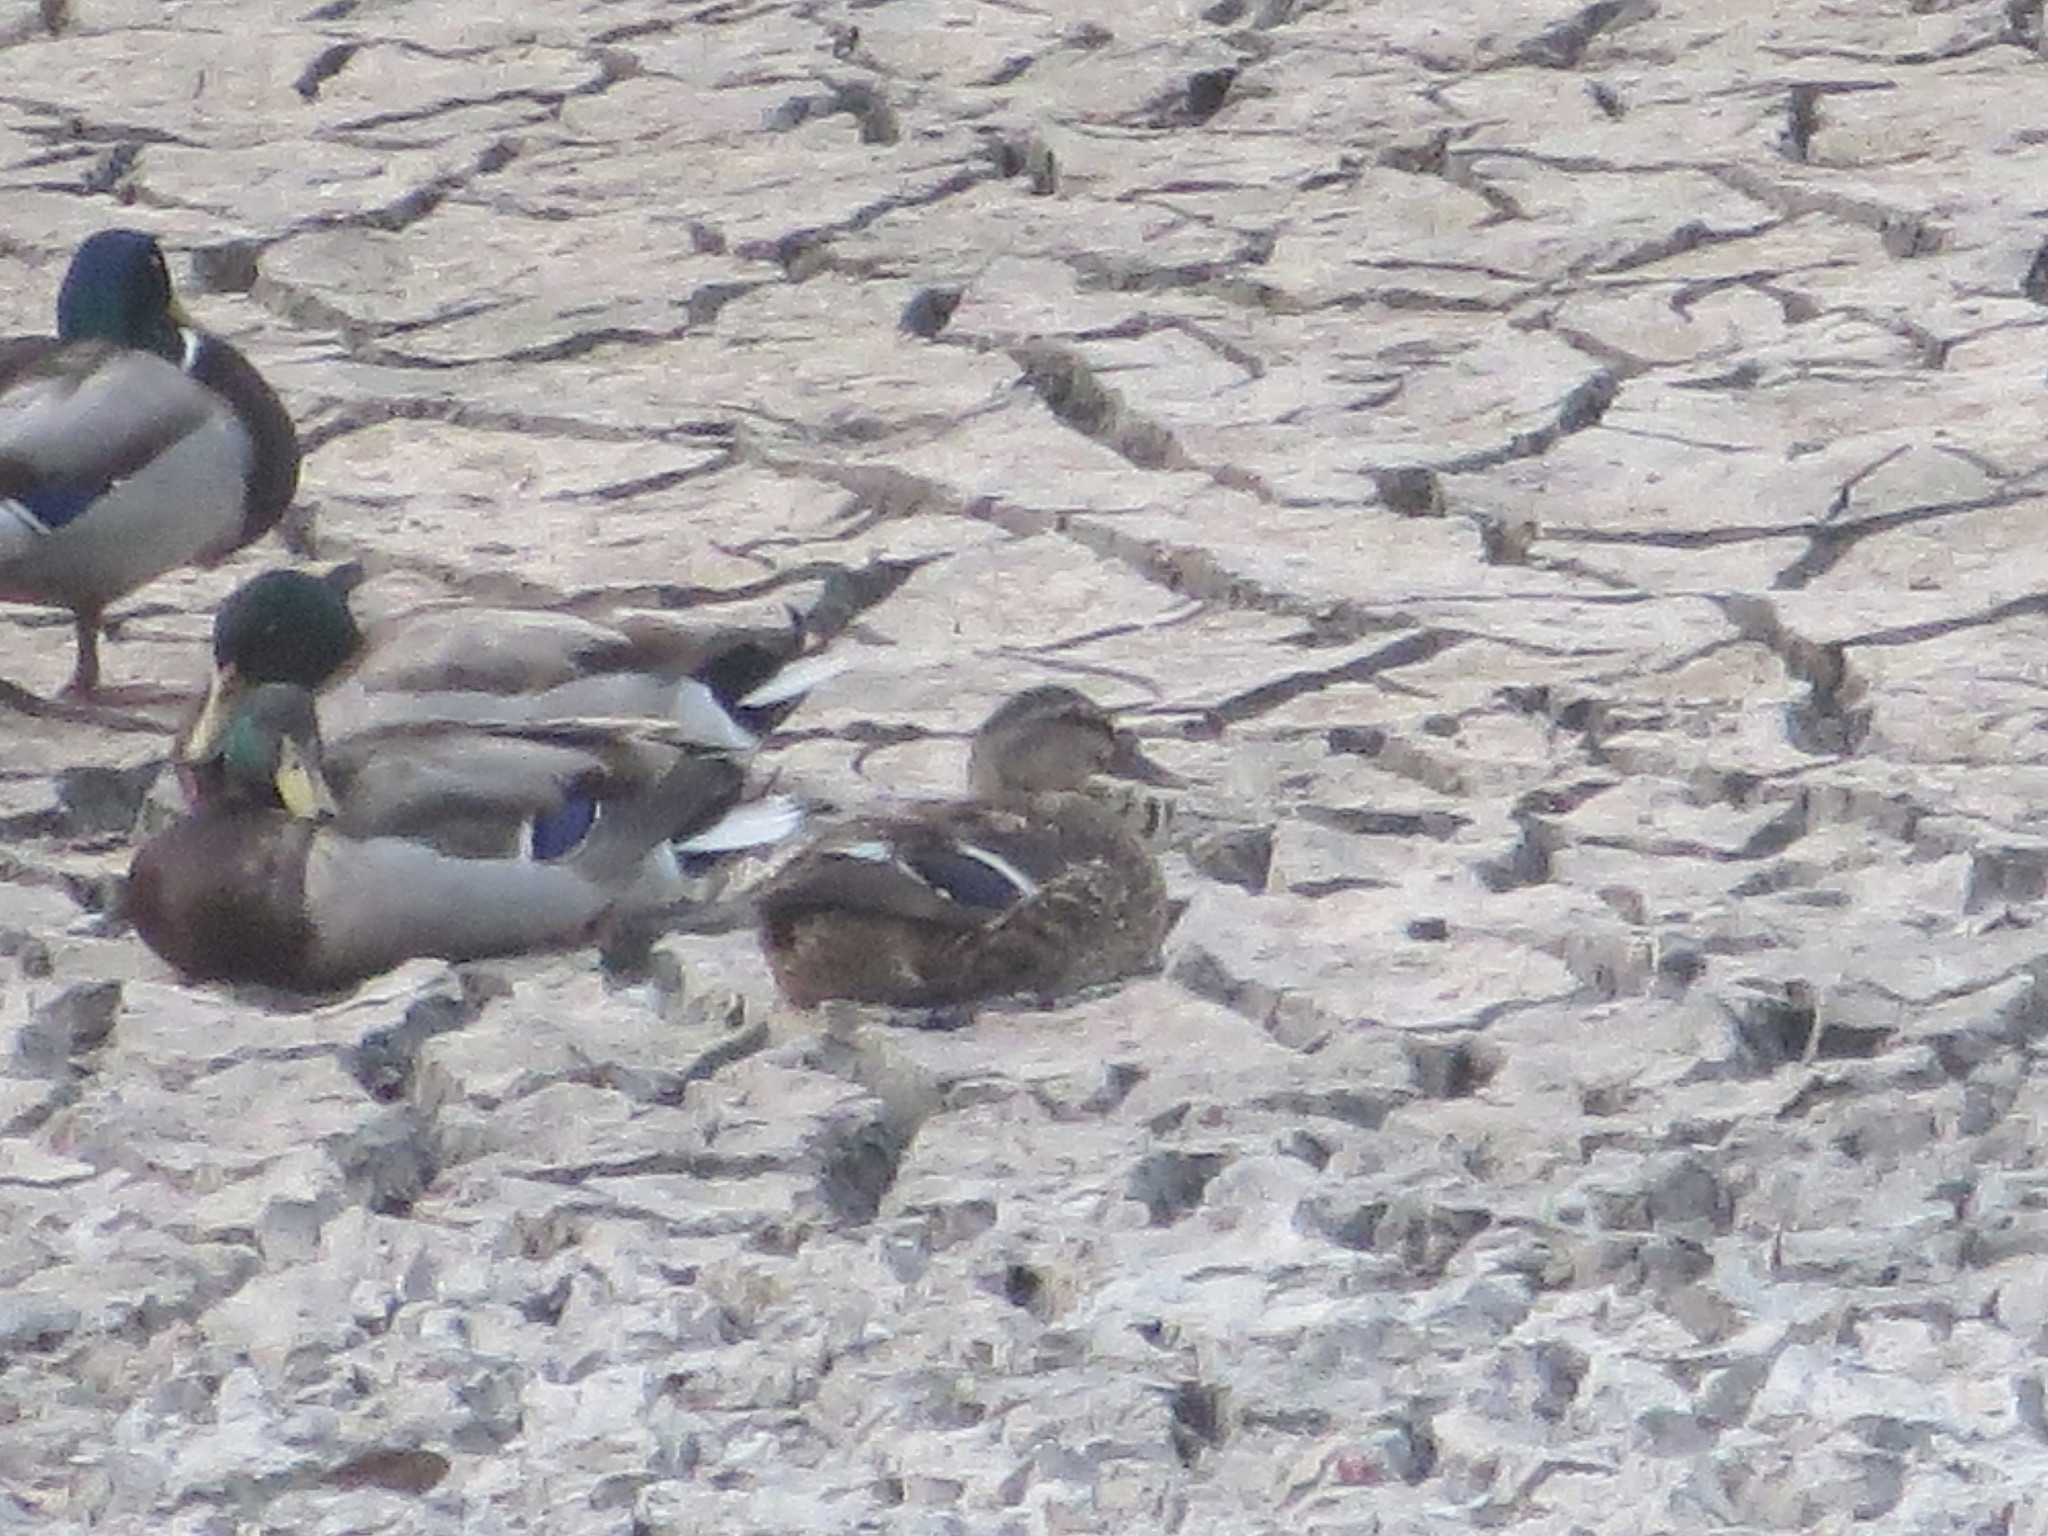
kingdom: Animalia
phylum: Chordata
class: Aves
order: Anseriformes
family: Anatidae
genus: Anas
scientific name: Anas platyrhynchos
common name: Mallard
